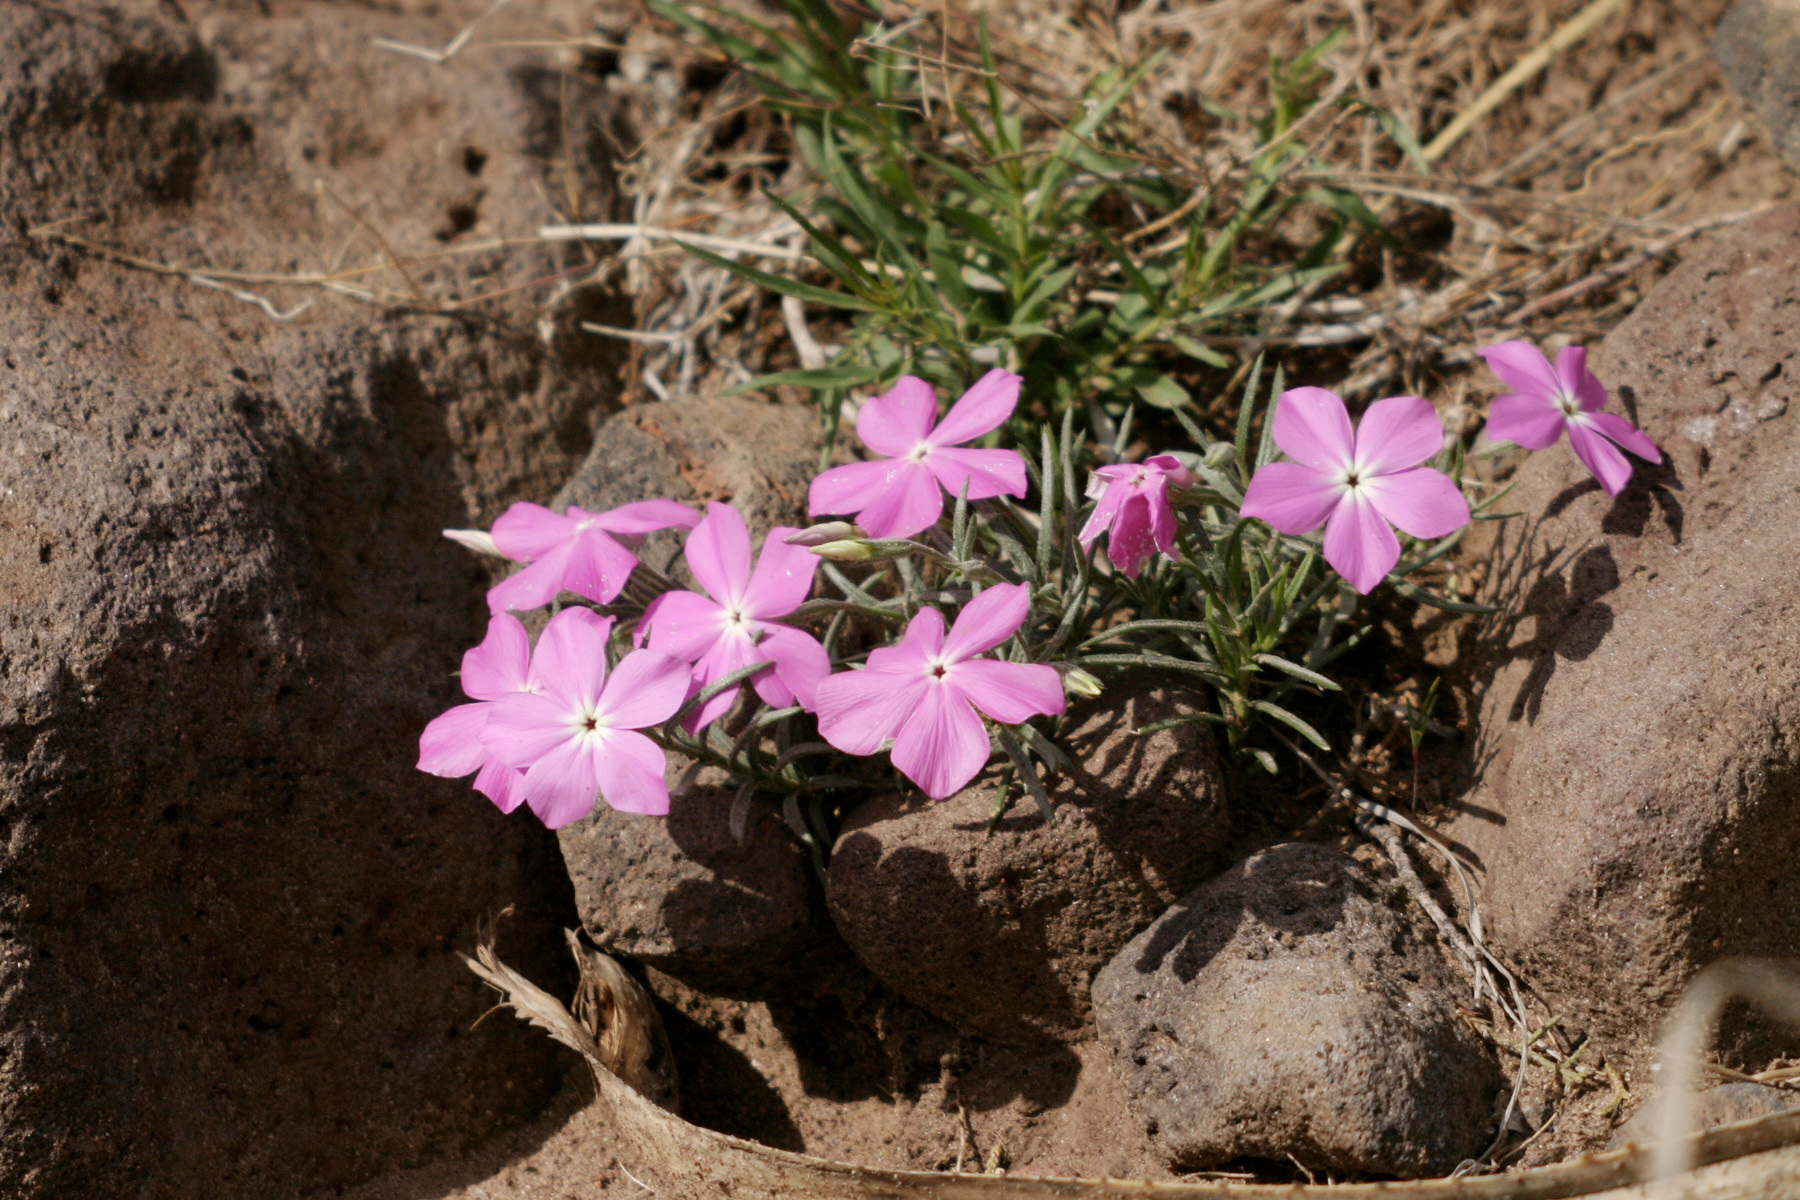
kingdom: Plantae
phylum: Tracheophyta
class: Magnoliopsida
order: Ericales
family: Polemoniaceae
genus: Phlox
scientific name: Phlox nana
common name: Santa fe phlox
